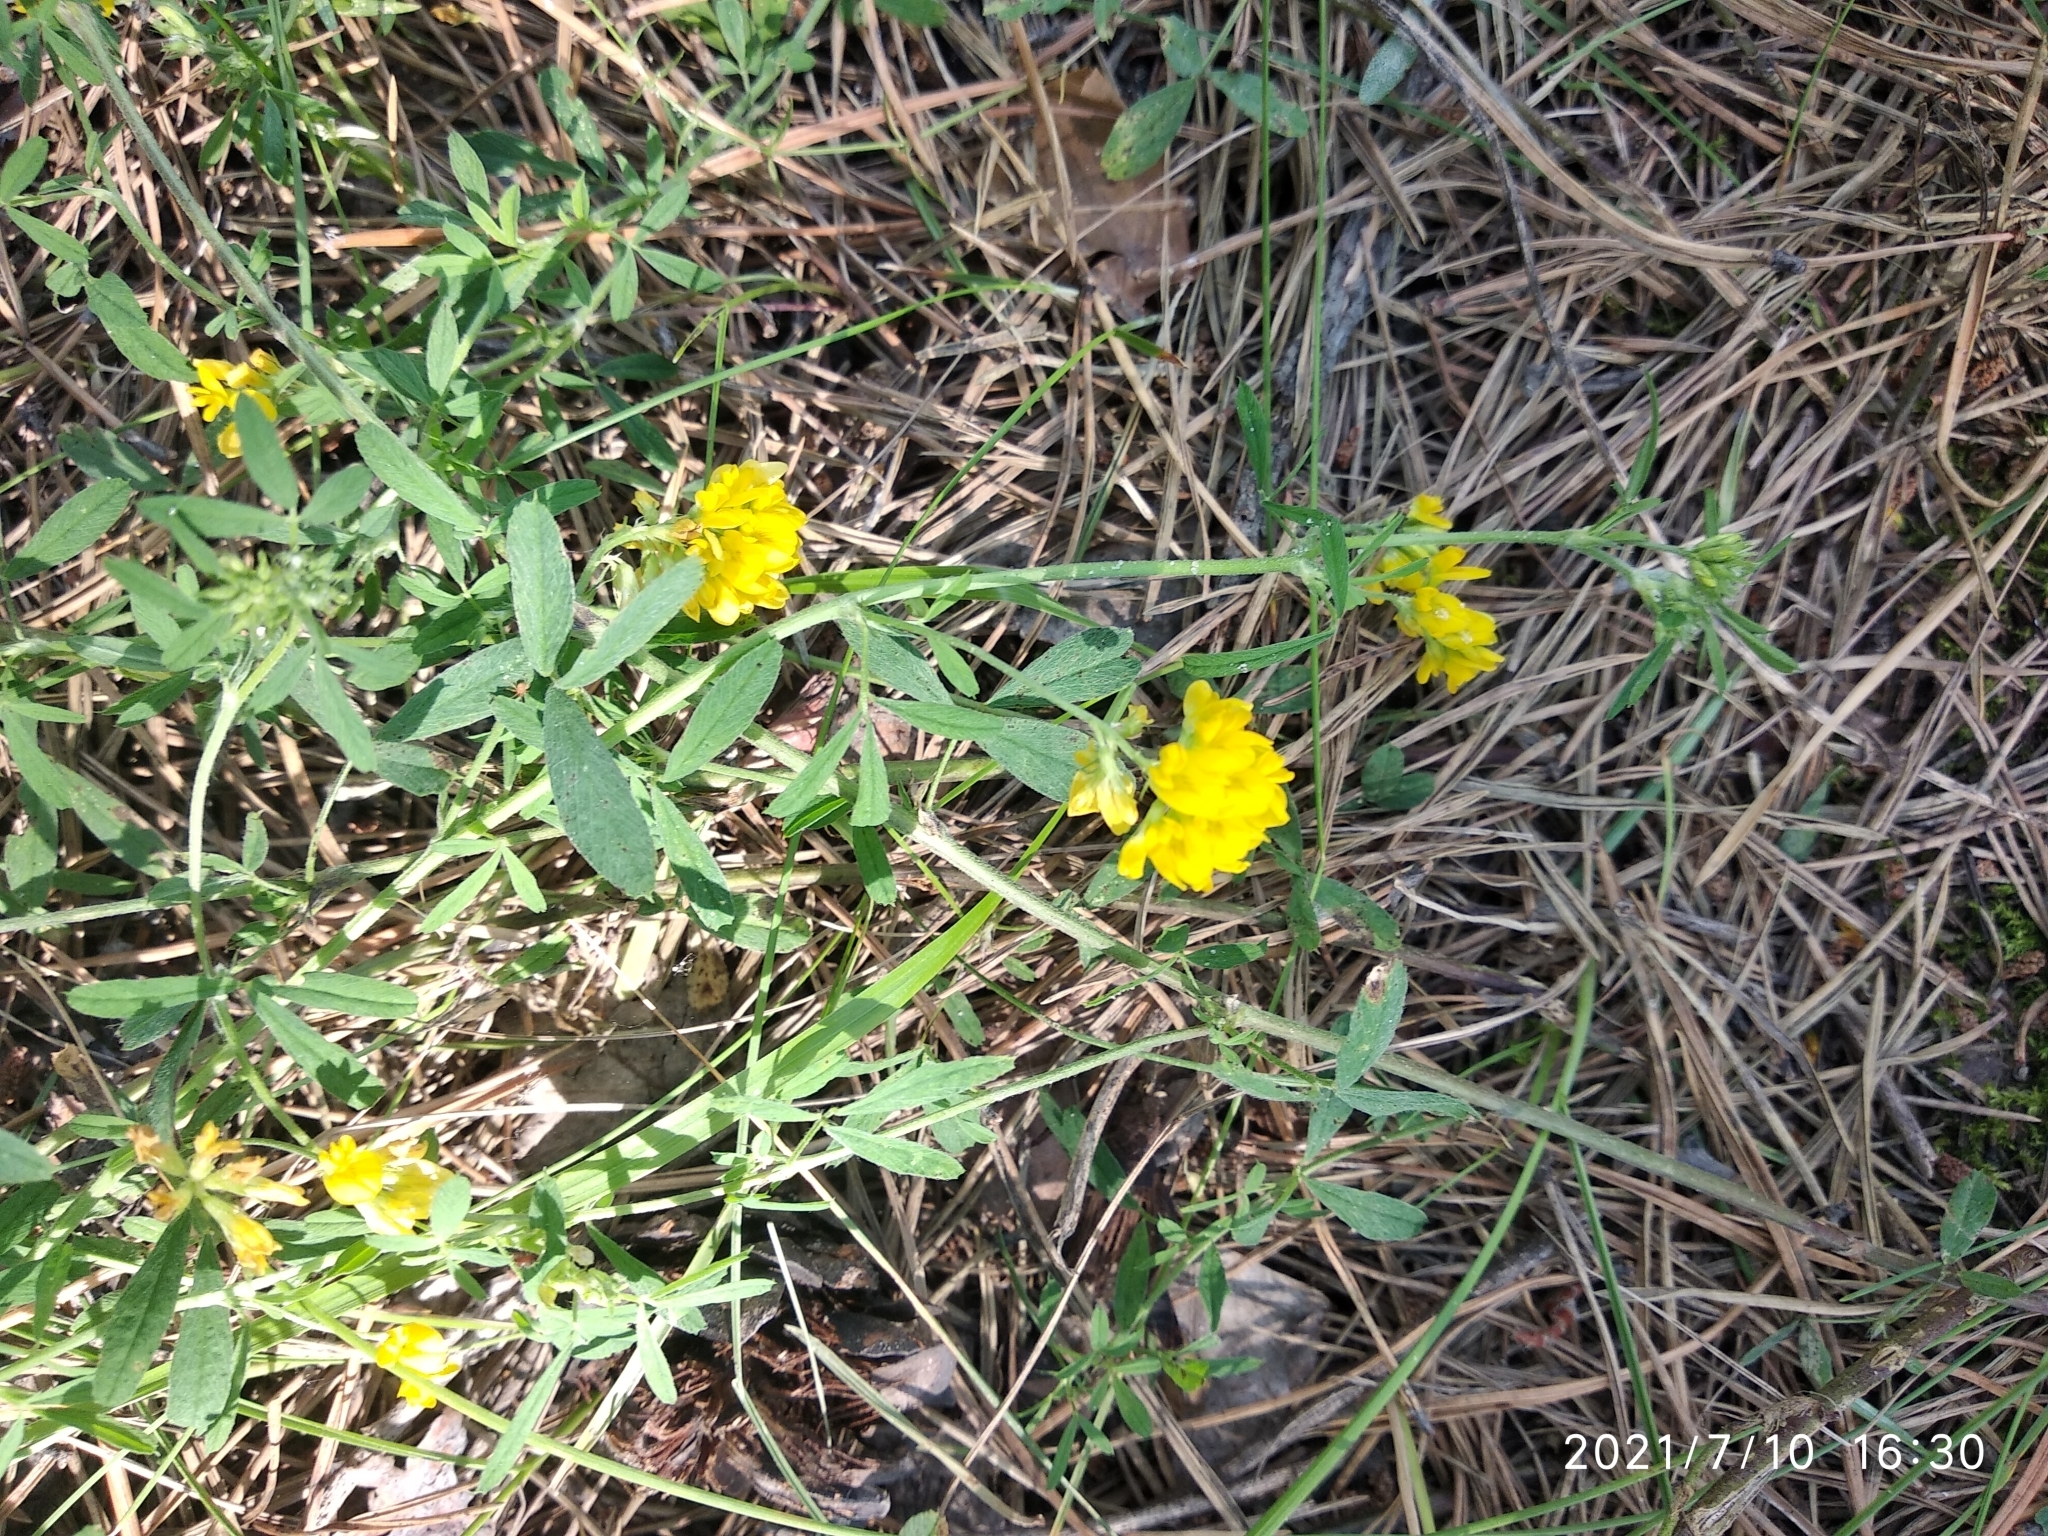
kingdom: Plantae
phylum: Tracheophyta
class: Magnoliopsida
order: Fabales
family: Fabaceae
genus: Medicago
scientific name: Medicago falcata
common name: Sickle medick
